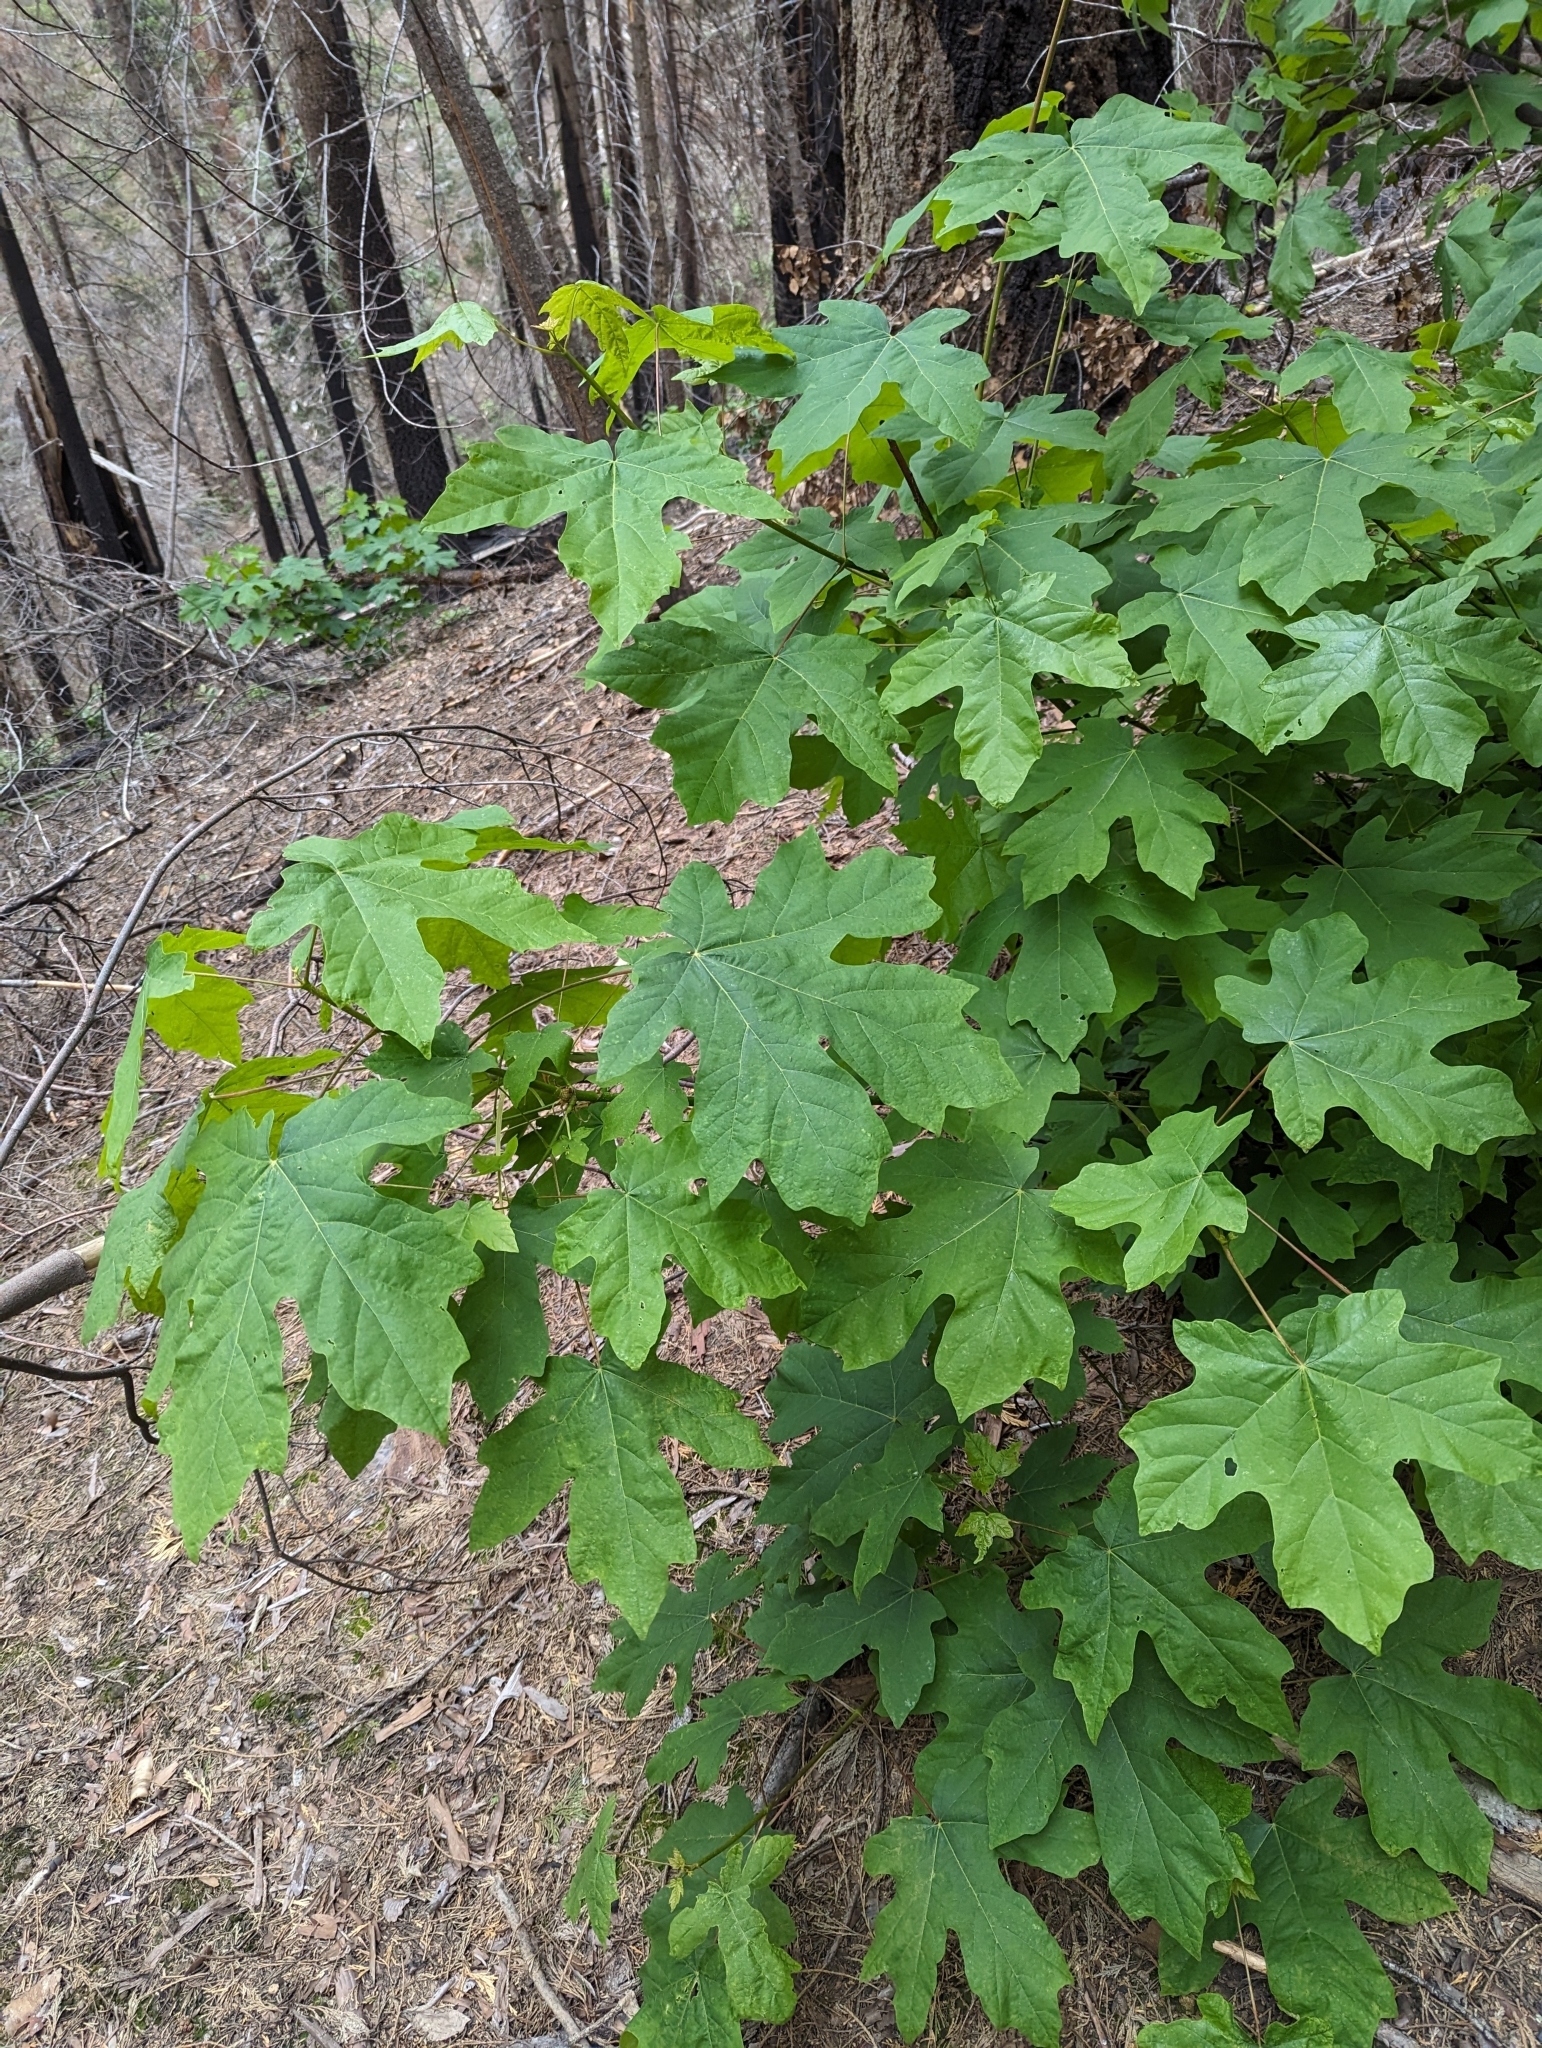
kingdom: Plantae
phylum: Tracheophyta
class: Magnoliopsida
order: Sapindales
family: Sapindaceae
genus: Acer
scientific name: Acer macrophyllum
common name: Oregon maple
